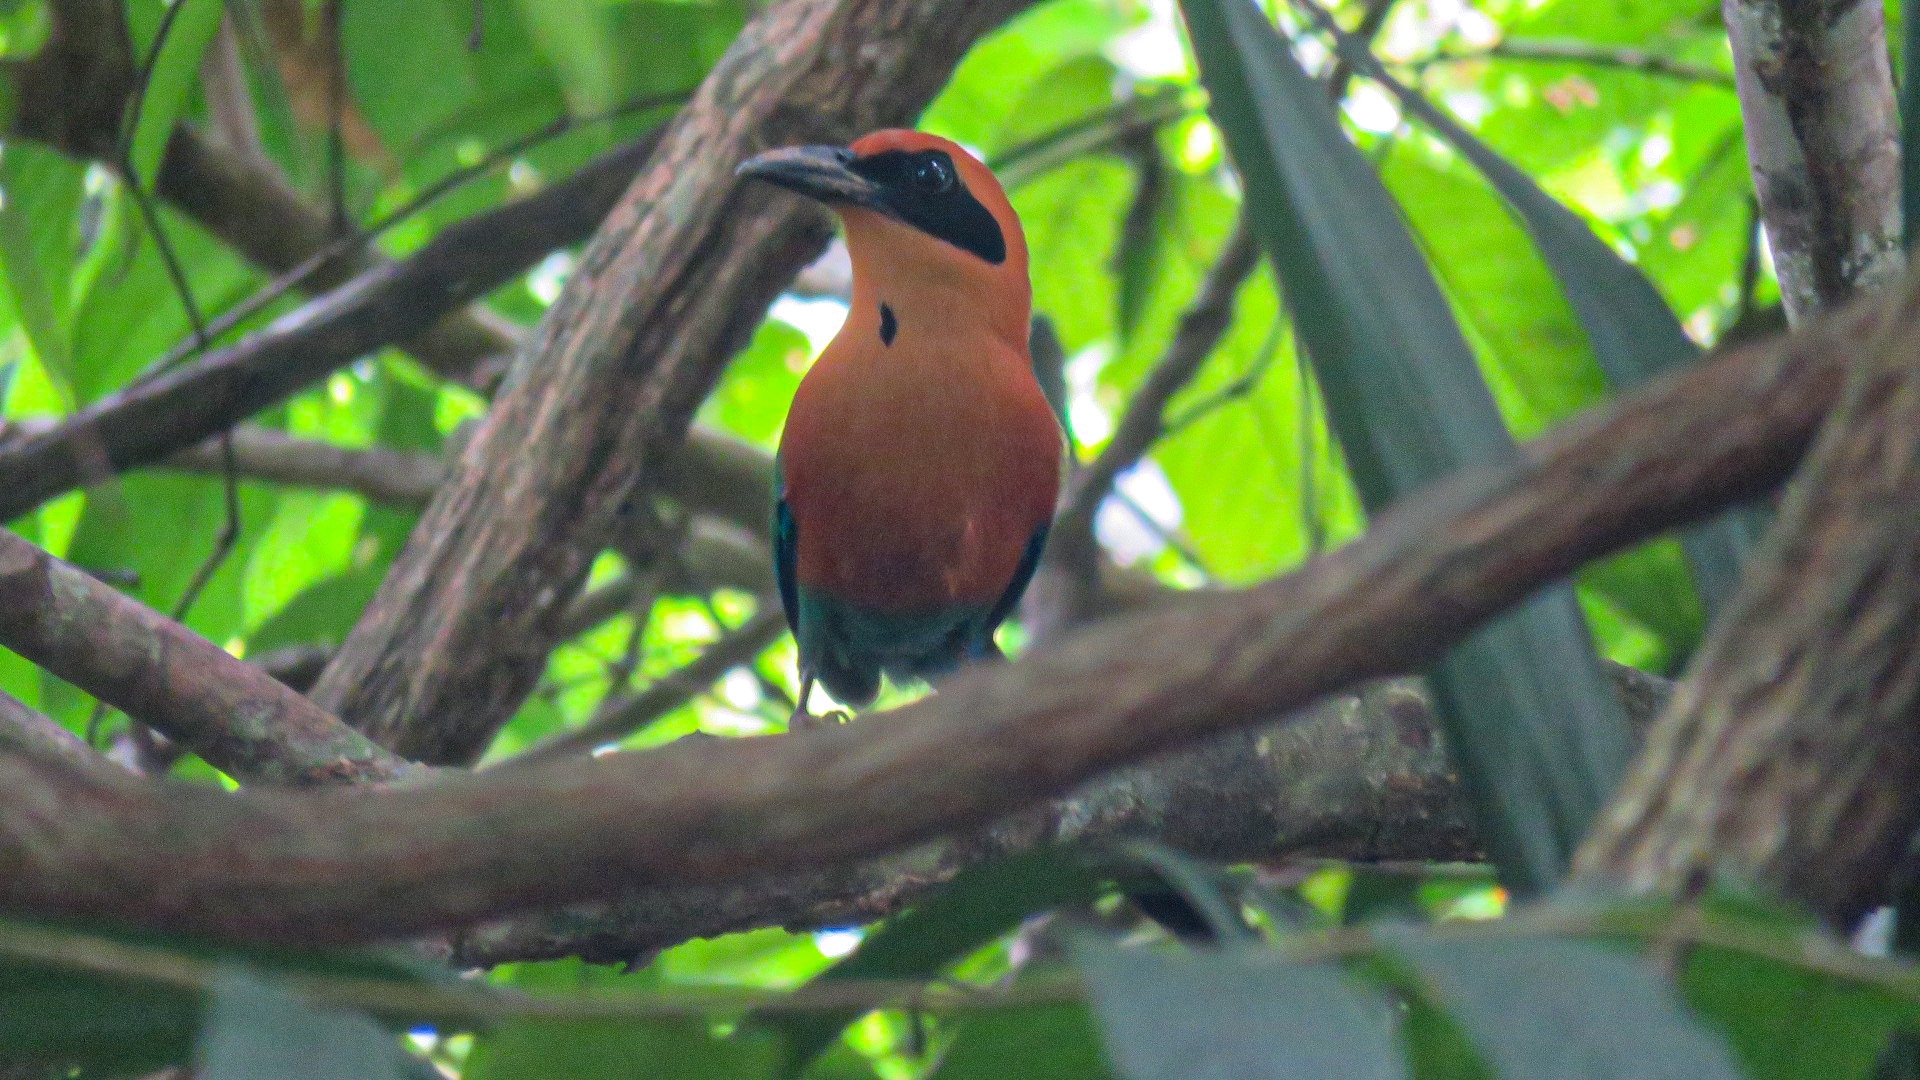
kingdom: Animalia
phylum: Chordata
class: Aves
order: Coraciiformes
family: Momotidae
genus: Baryphthengus
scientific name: Baryphthengus martii
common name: Rufous motmot
